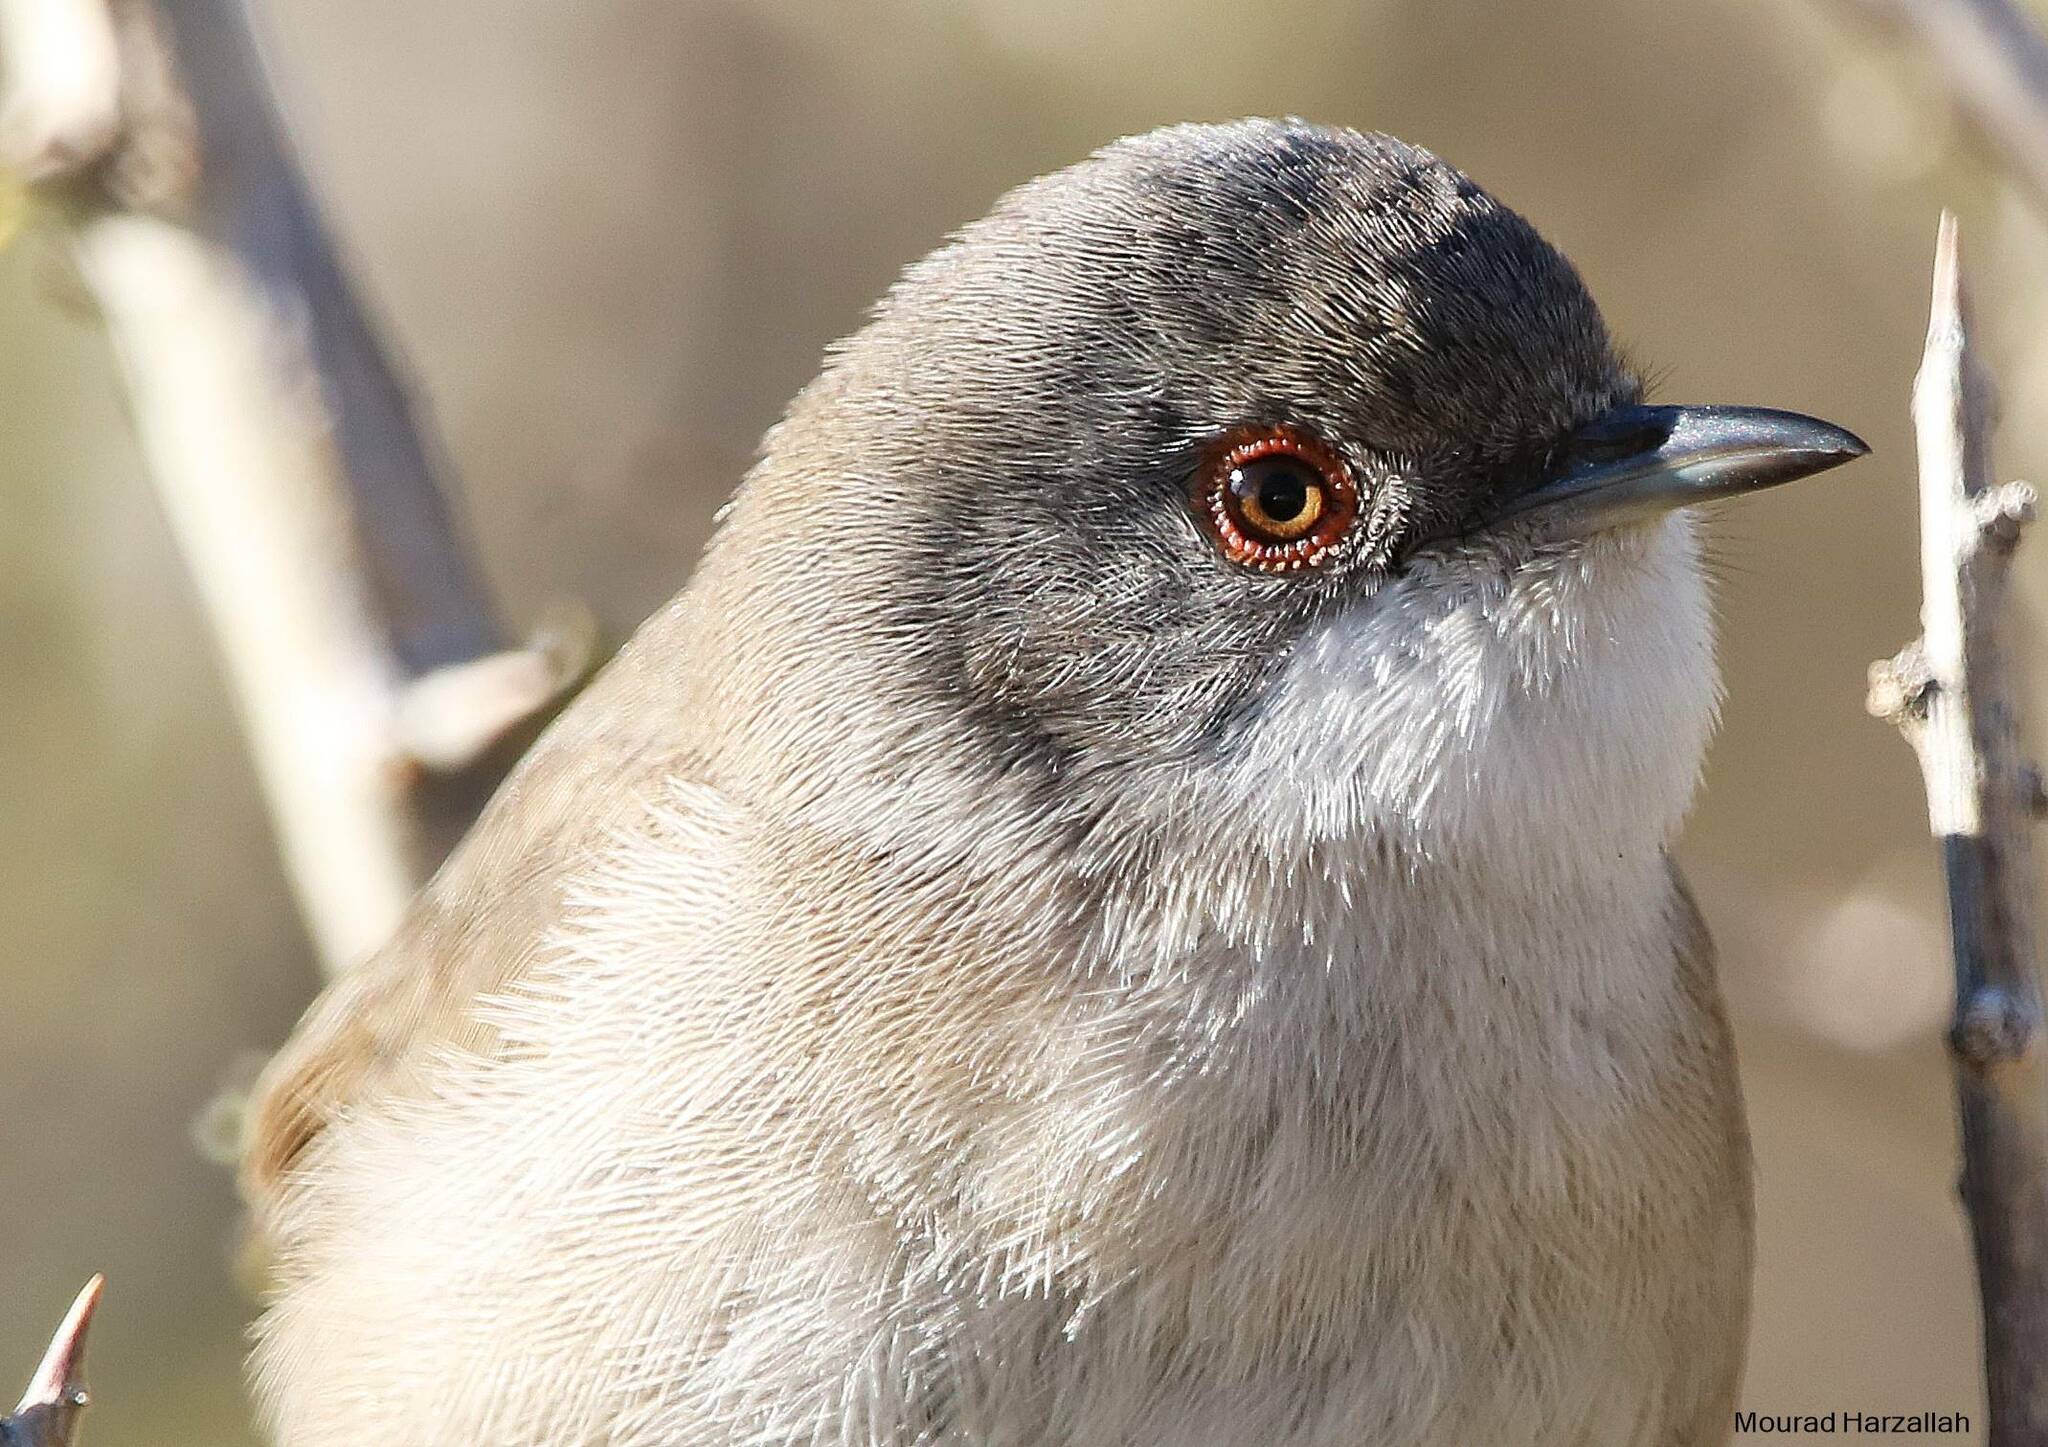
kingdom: Animalia
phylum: Chordata
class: Aves
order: Passeriformes
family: Sylviidae
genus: Curruca
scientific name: Curruca melanocephala
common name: Sardinian warbler
